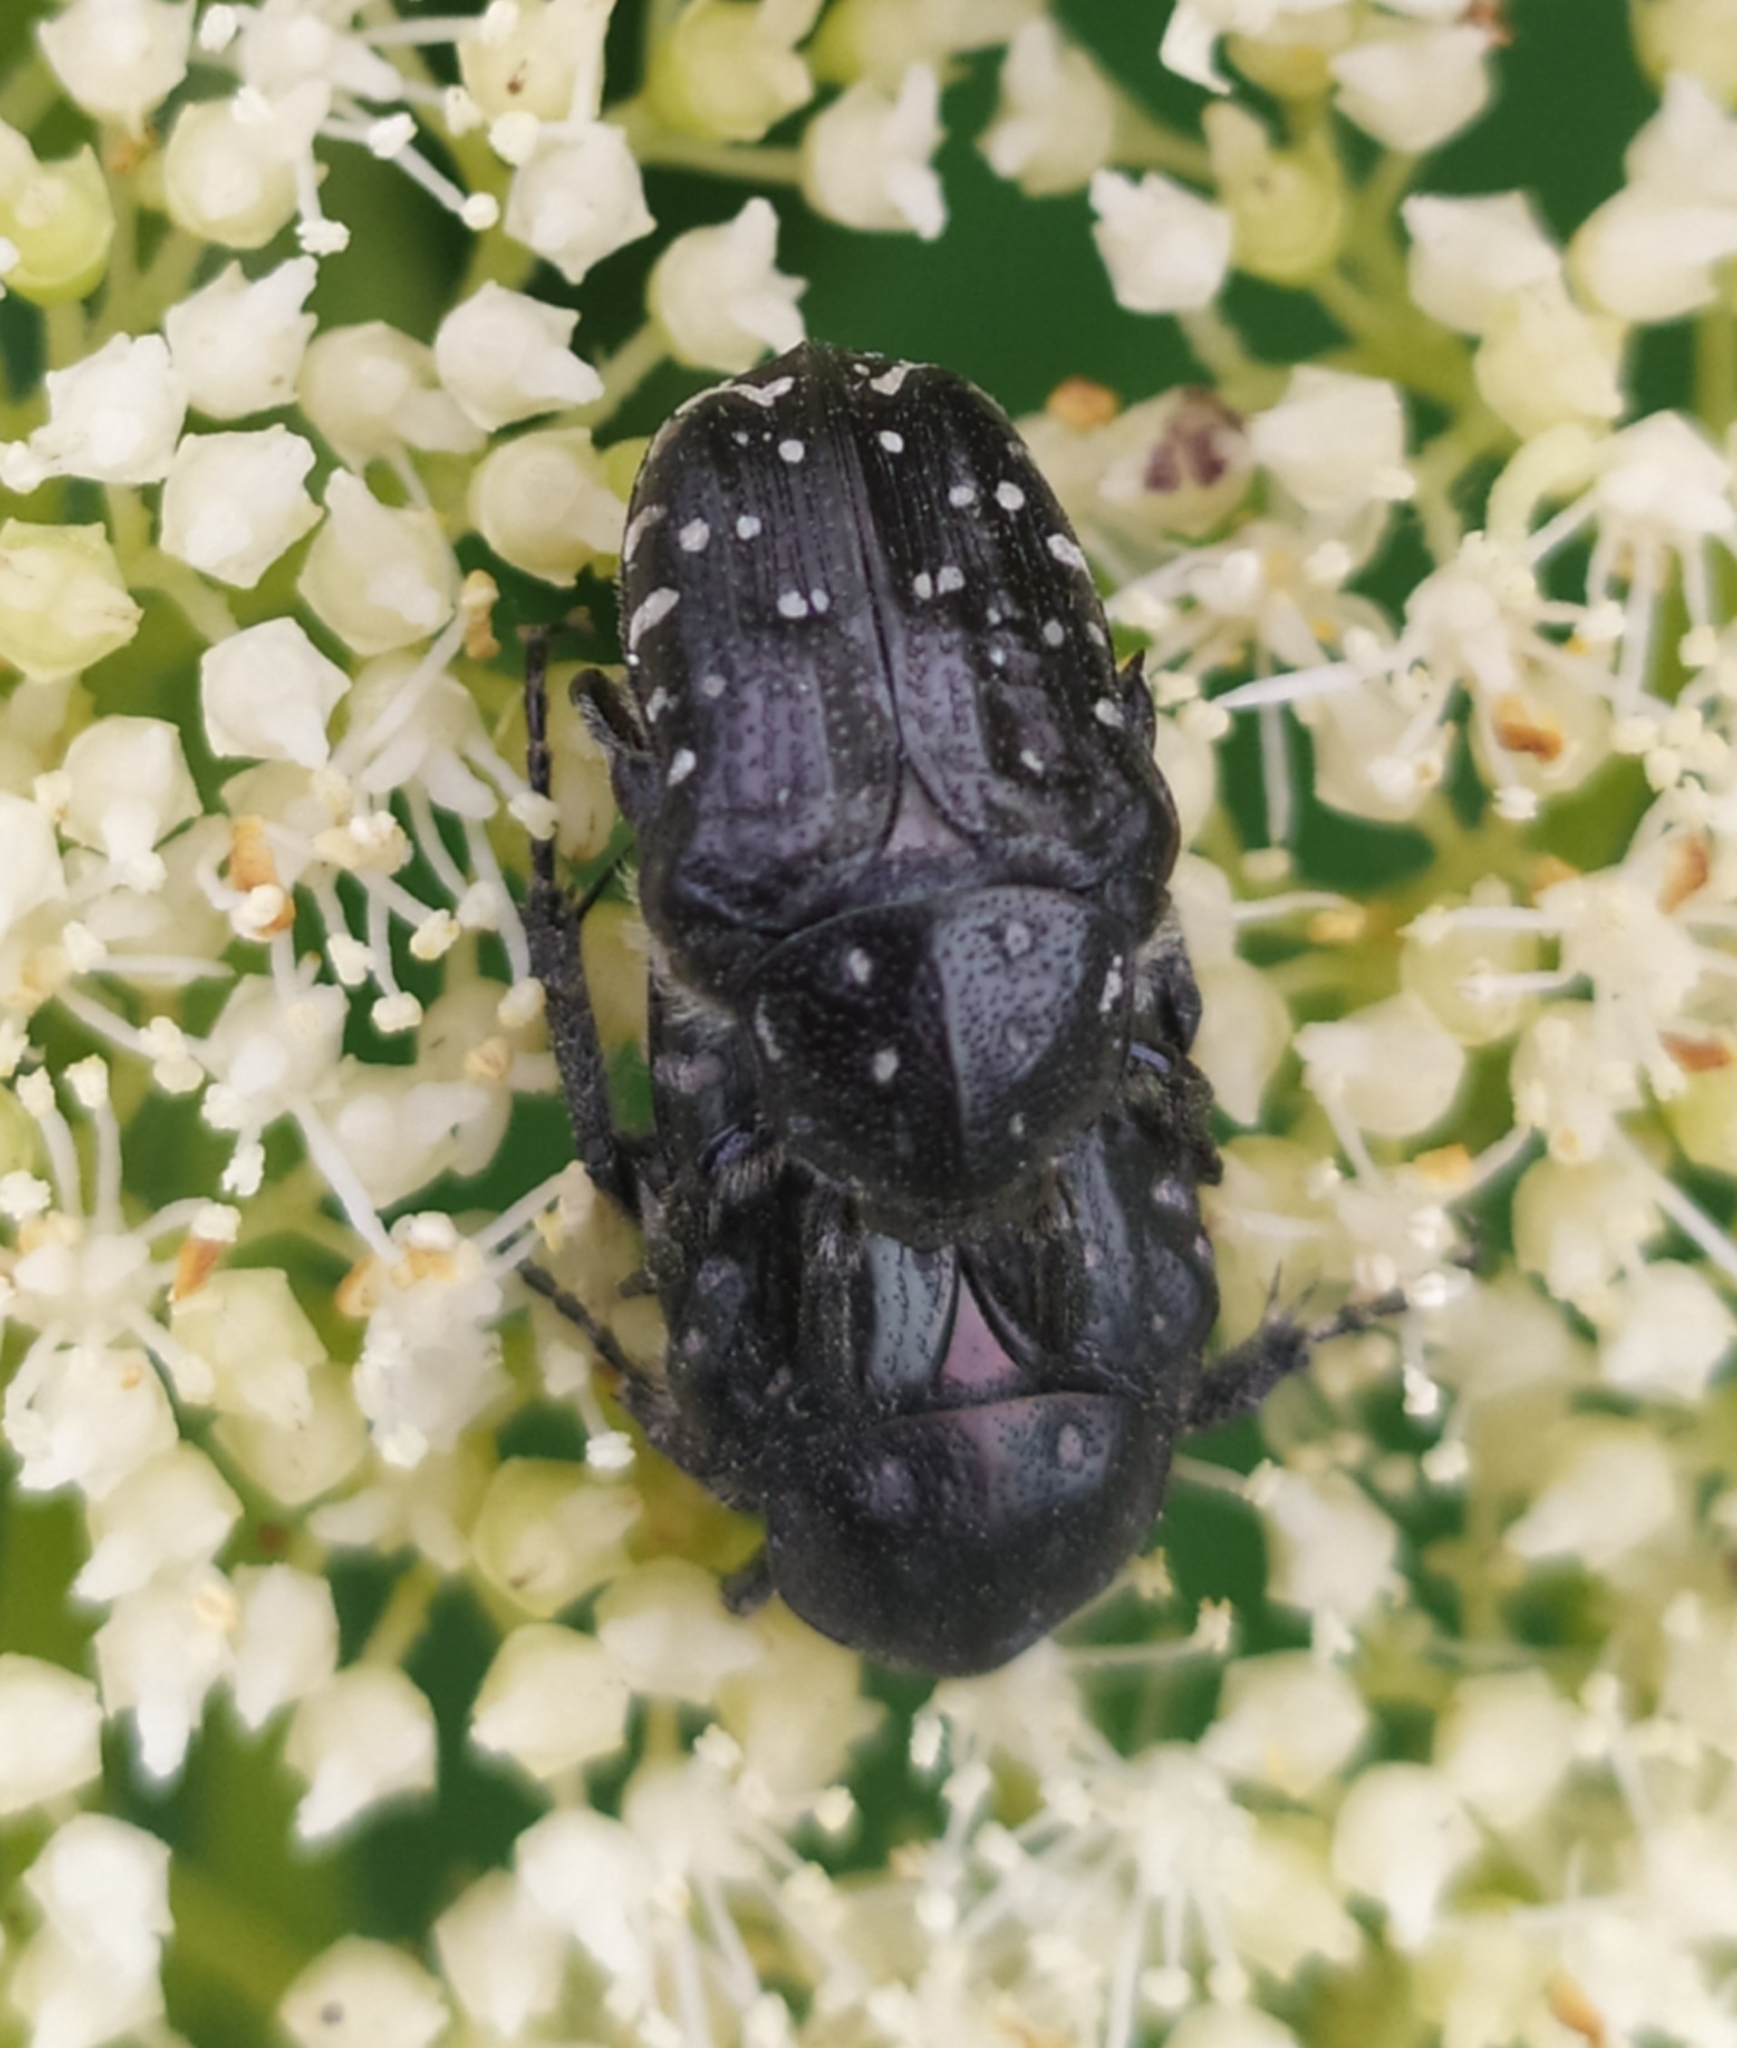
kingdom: Animalia
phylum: Arthropoda
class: Insecta
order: Coleoptera
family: Scarabaeidae
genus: Oxythyrea
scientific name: Oxythyrea funesta
